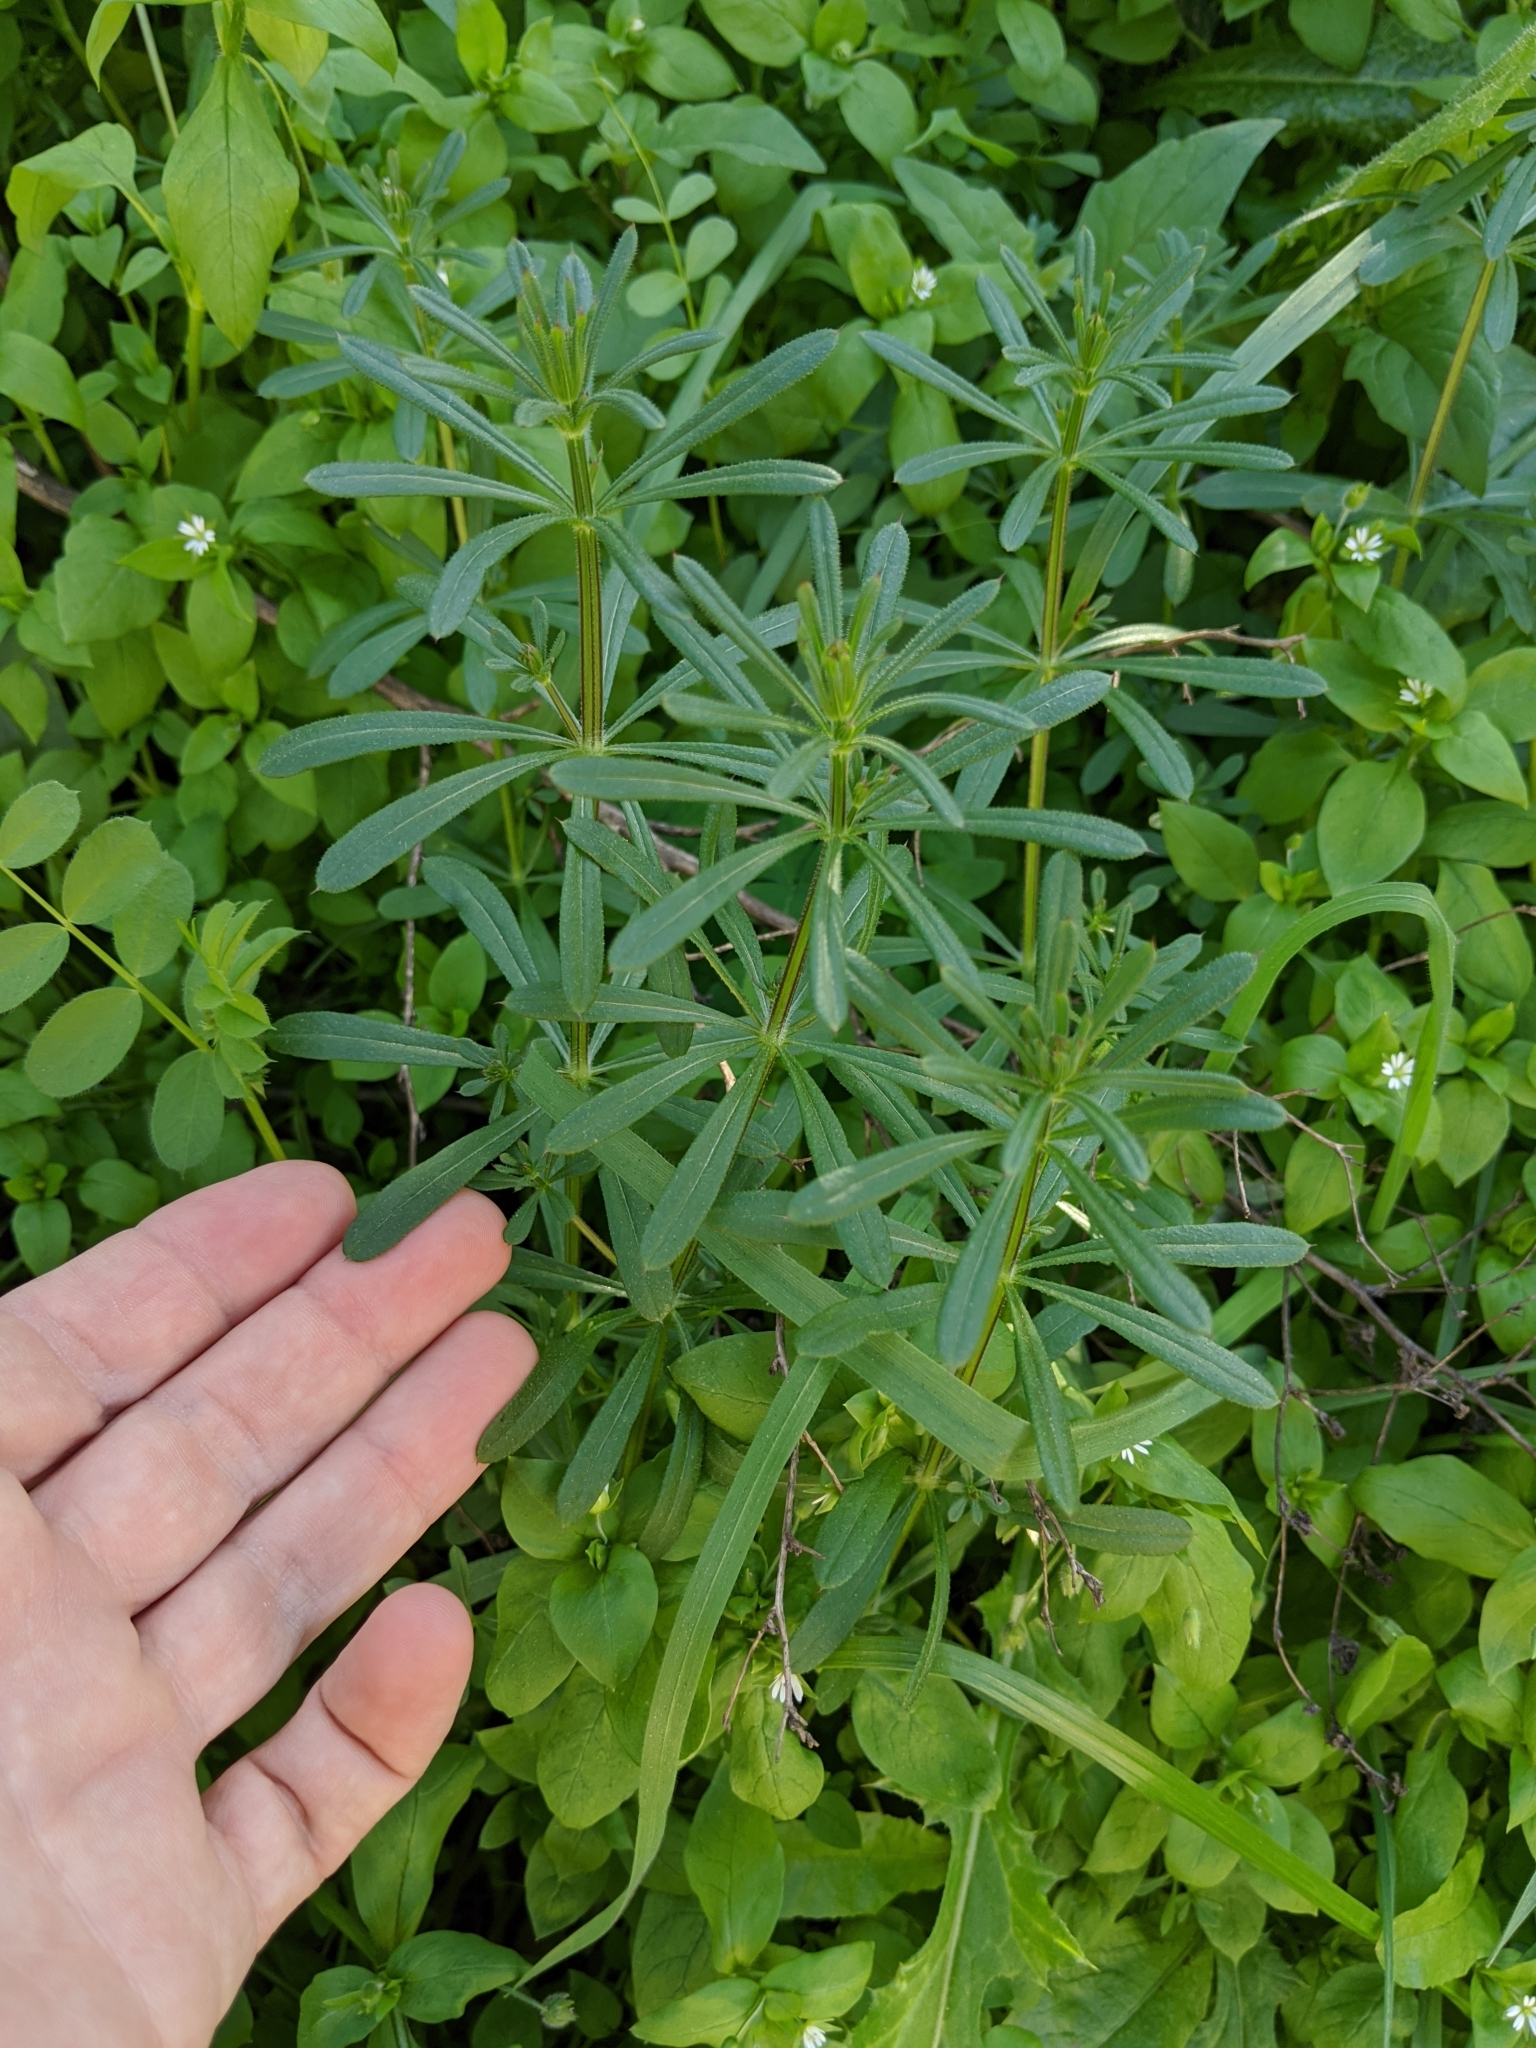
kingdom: Plantae
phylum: Tracheophyta
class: Magnoliopsida
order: Gentianales
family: Rubiaceae
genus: Galium
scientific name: Galium aparine
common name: Cleavers
